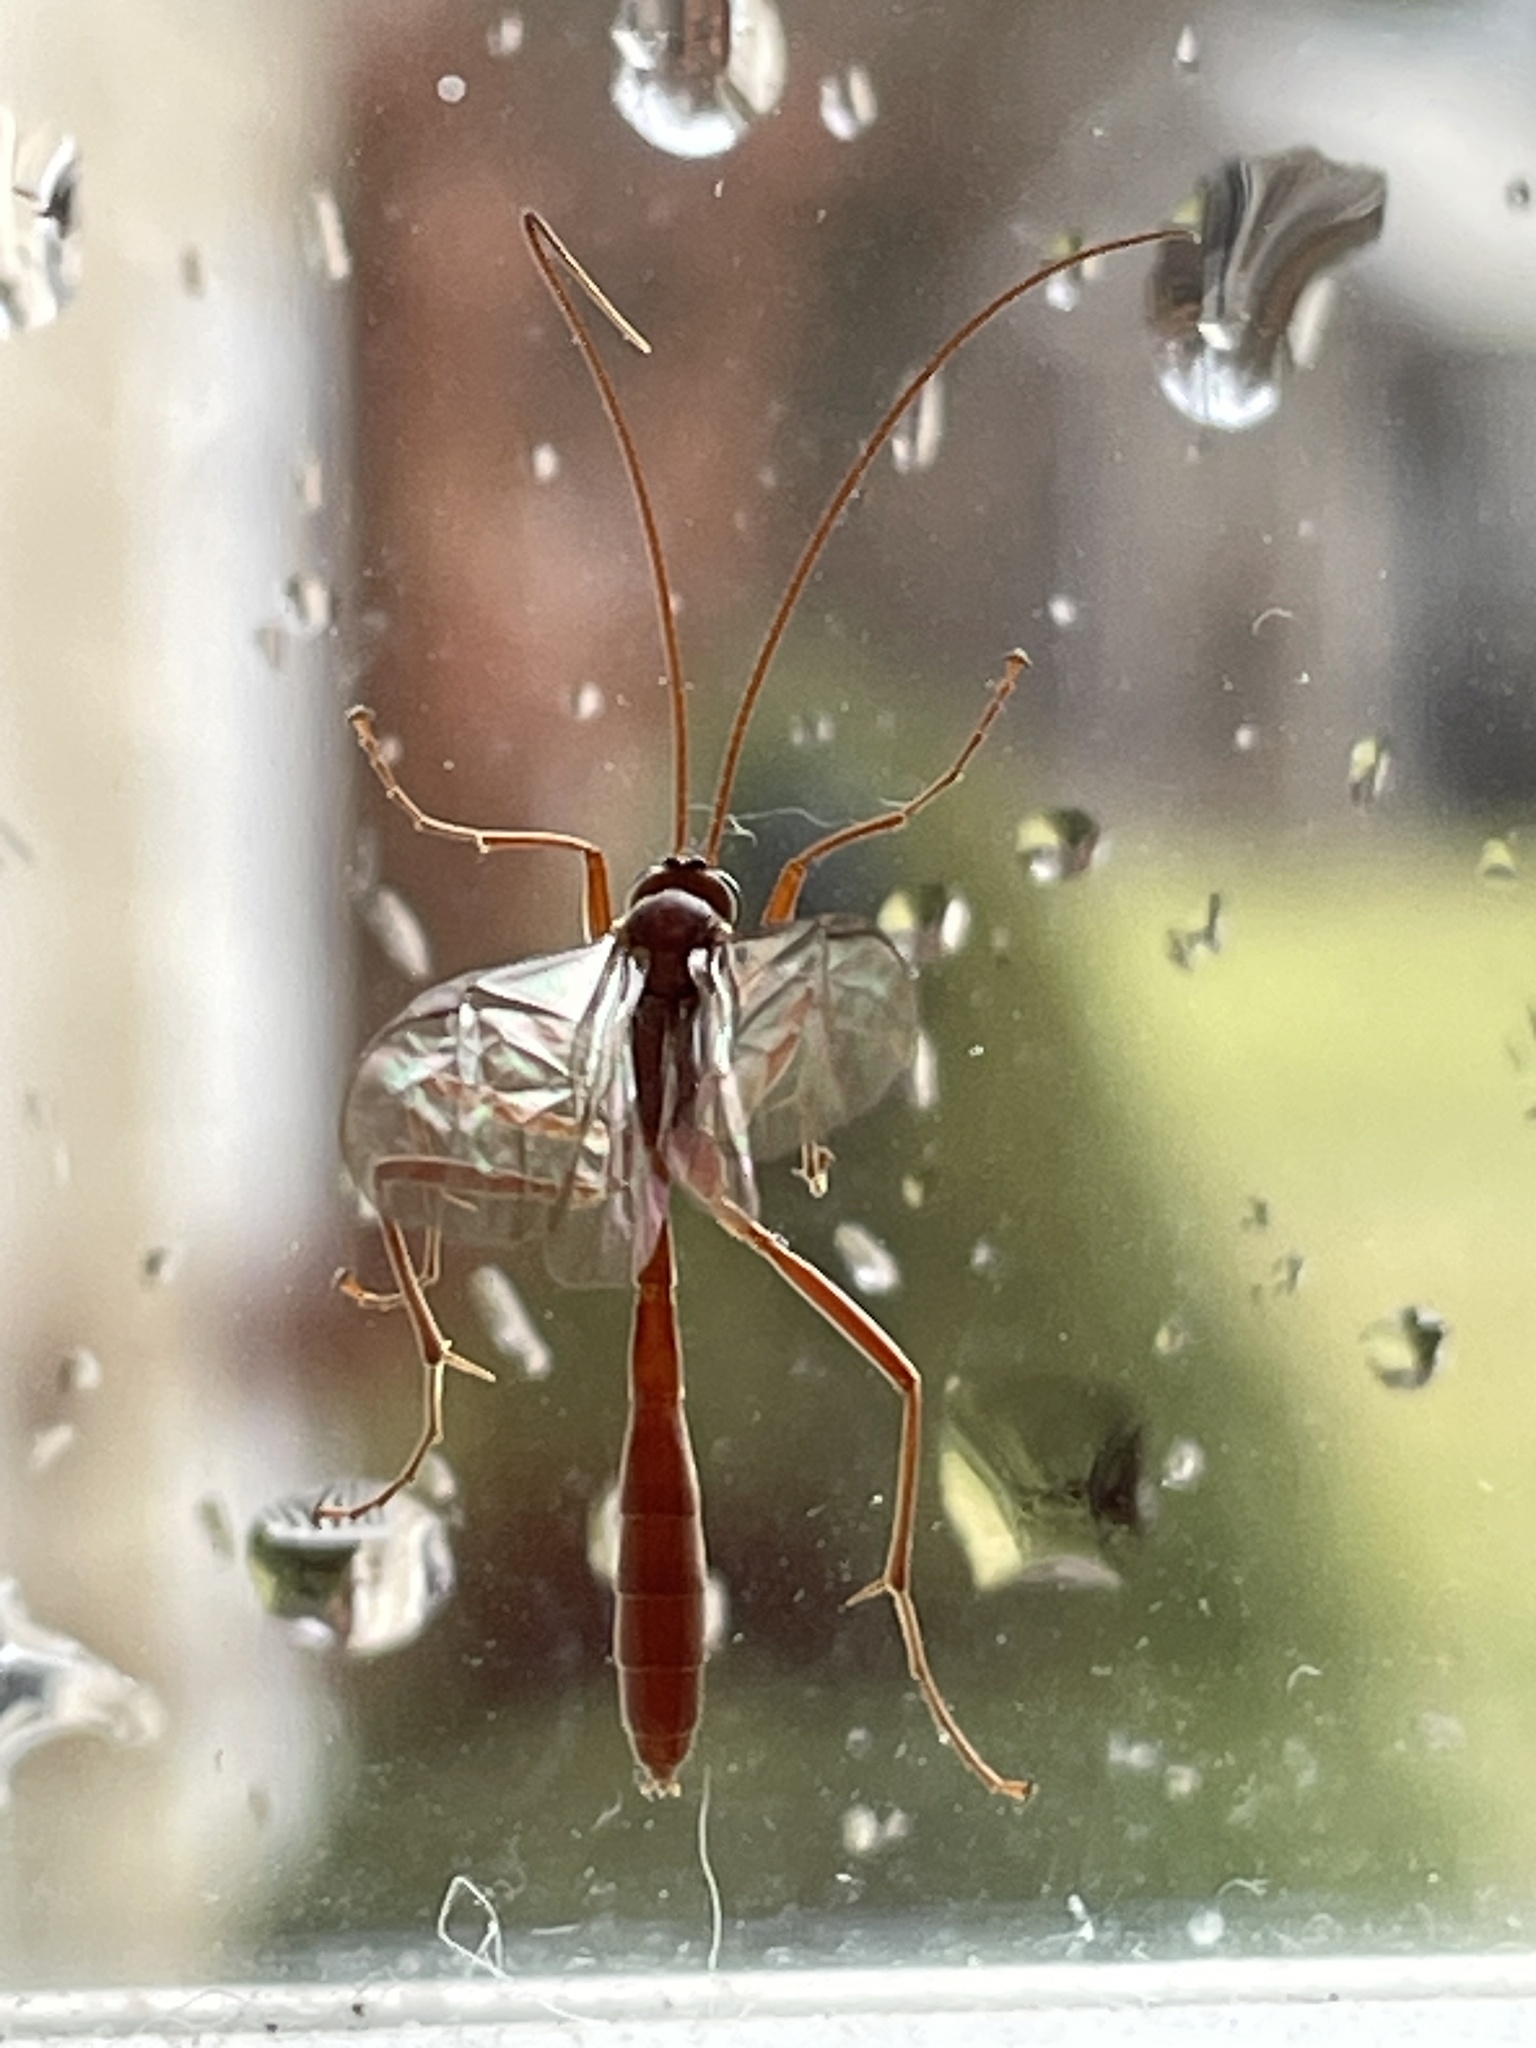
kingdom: Animalia
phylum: Arthropoda
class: Insecta
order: Hymenoptera
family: Ichneumonidae
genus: Ophion
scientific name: Ophion
